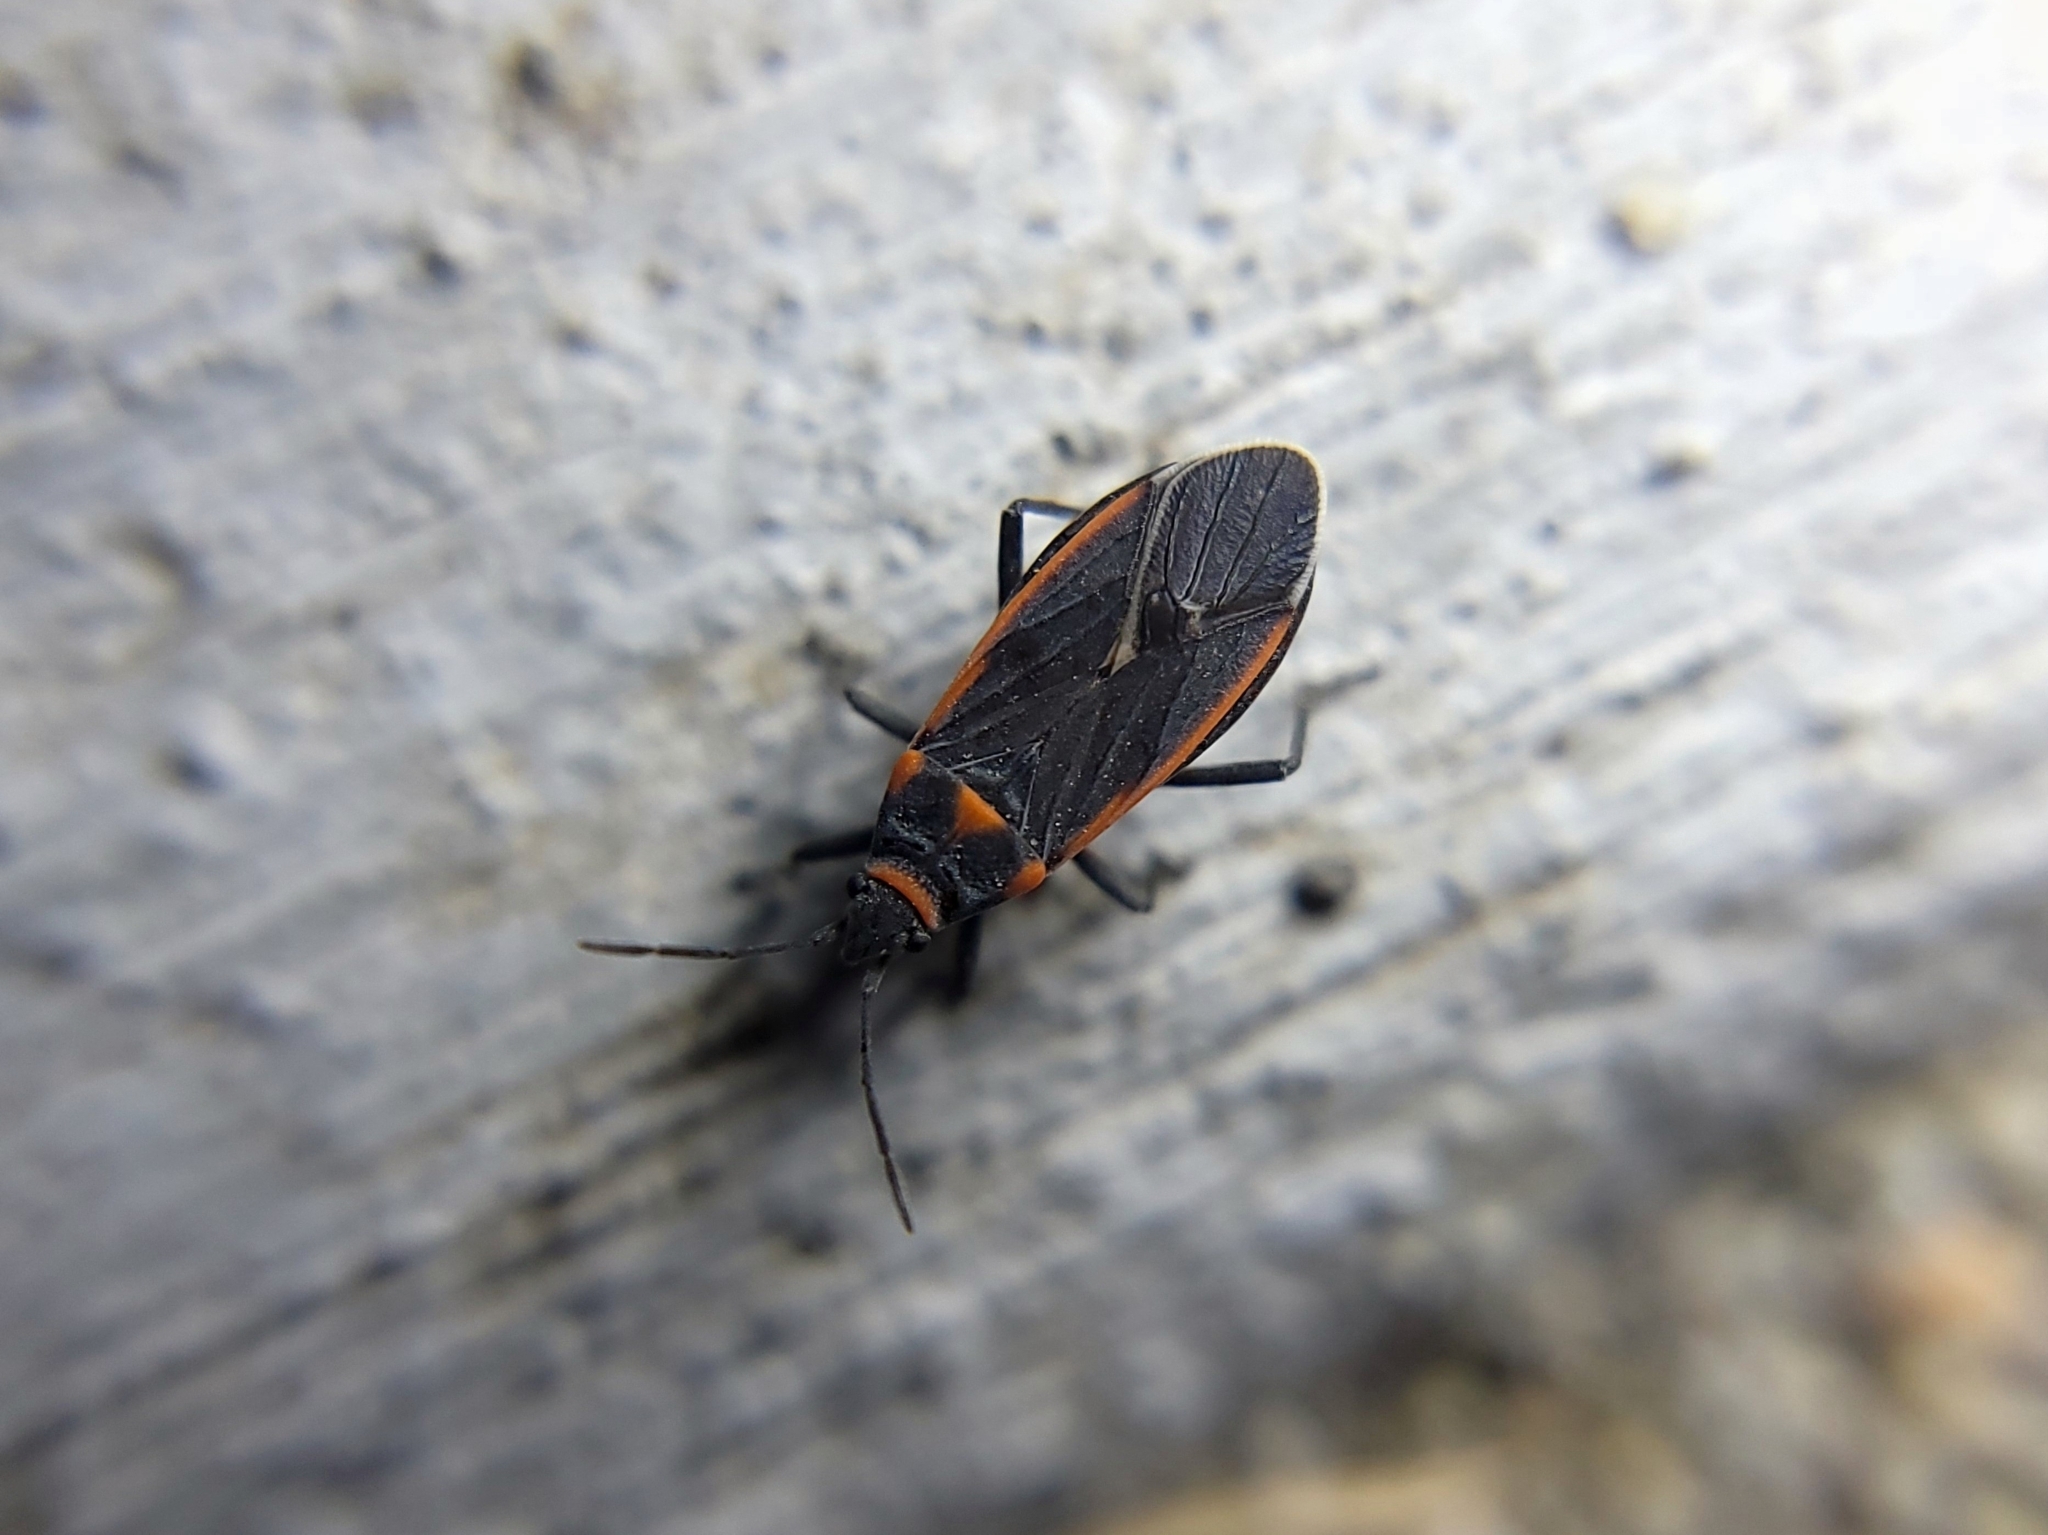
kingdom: Animalia
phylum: Arthropoda
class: Insecta
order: Hemiptera
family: Lygaeidae
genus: Melacoryphus
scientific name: Melacoryphus lateralis
